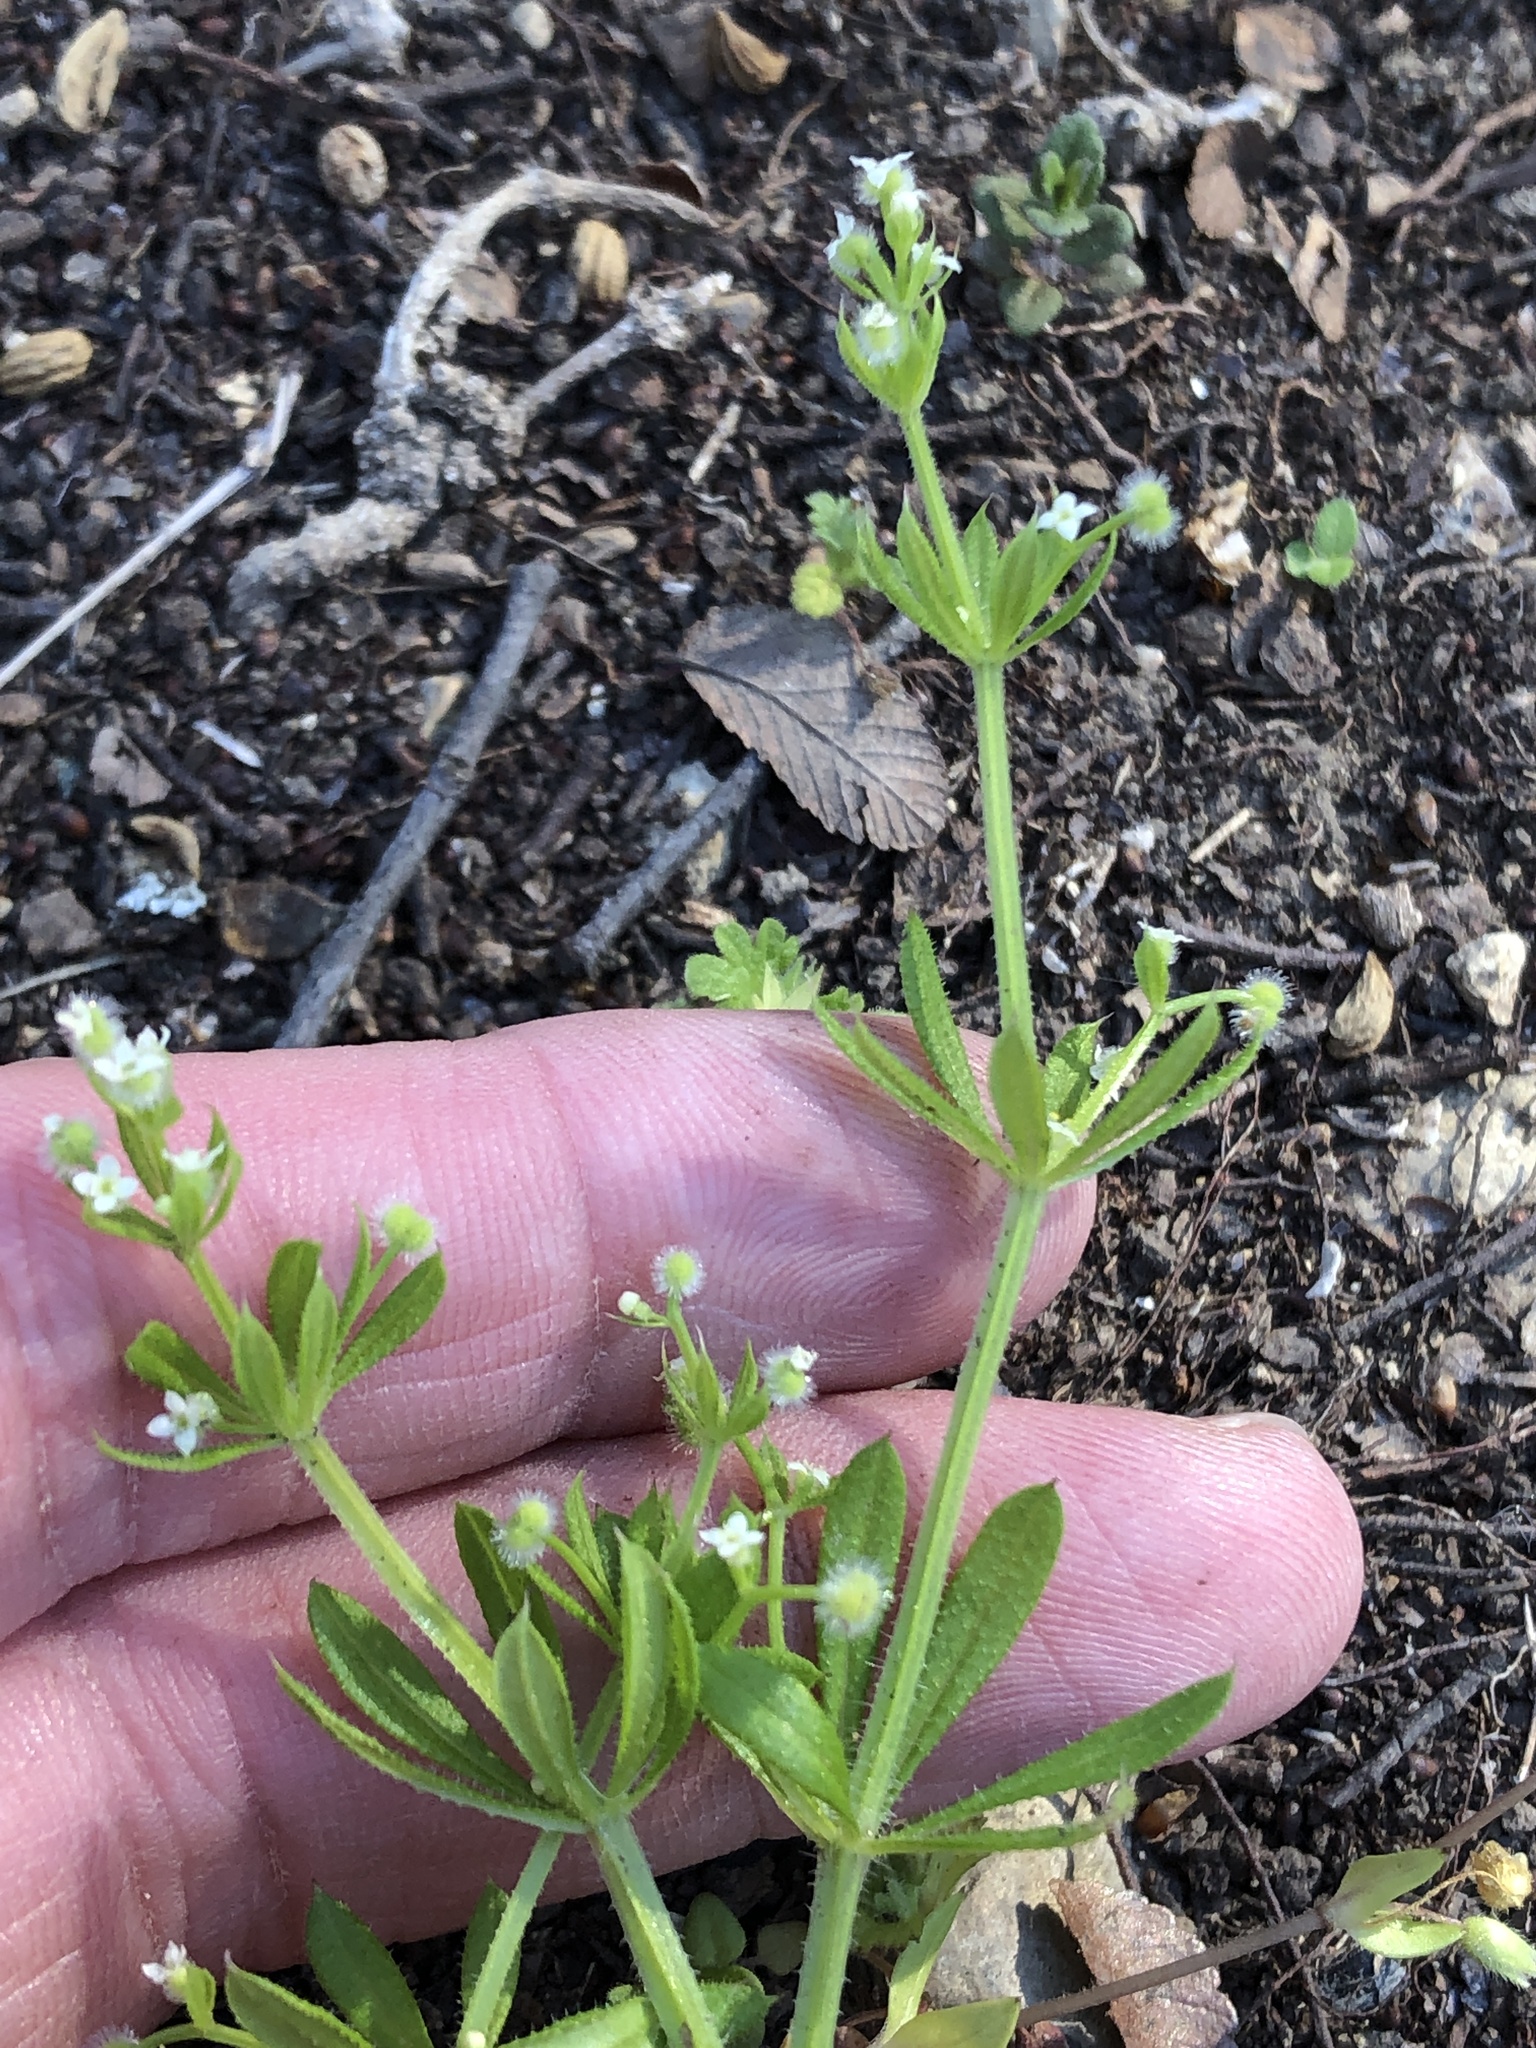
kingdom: Plantae
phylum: Tracheophyta
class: Magnoliopsida
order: Gentianales
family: Rubiaceae
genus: Galium
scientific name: Galium aparine
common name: Cleavers
